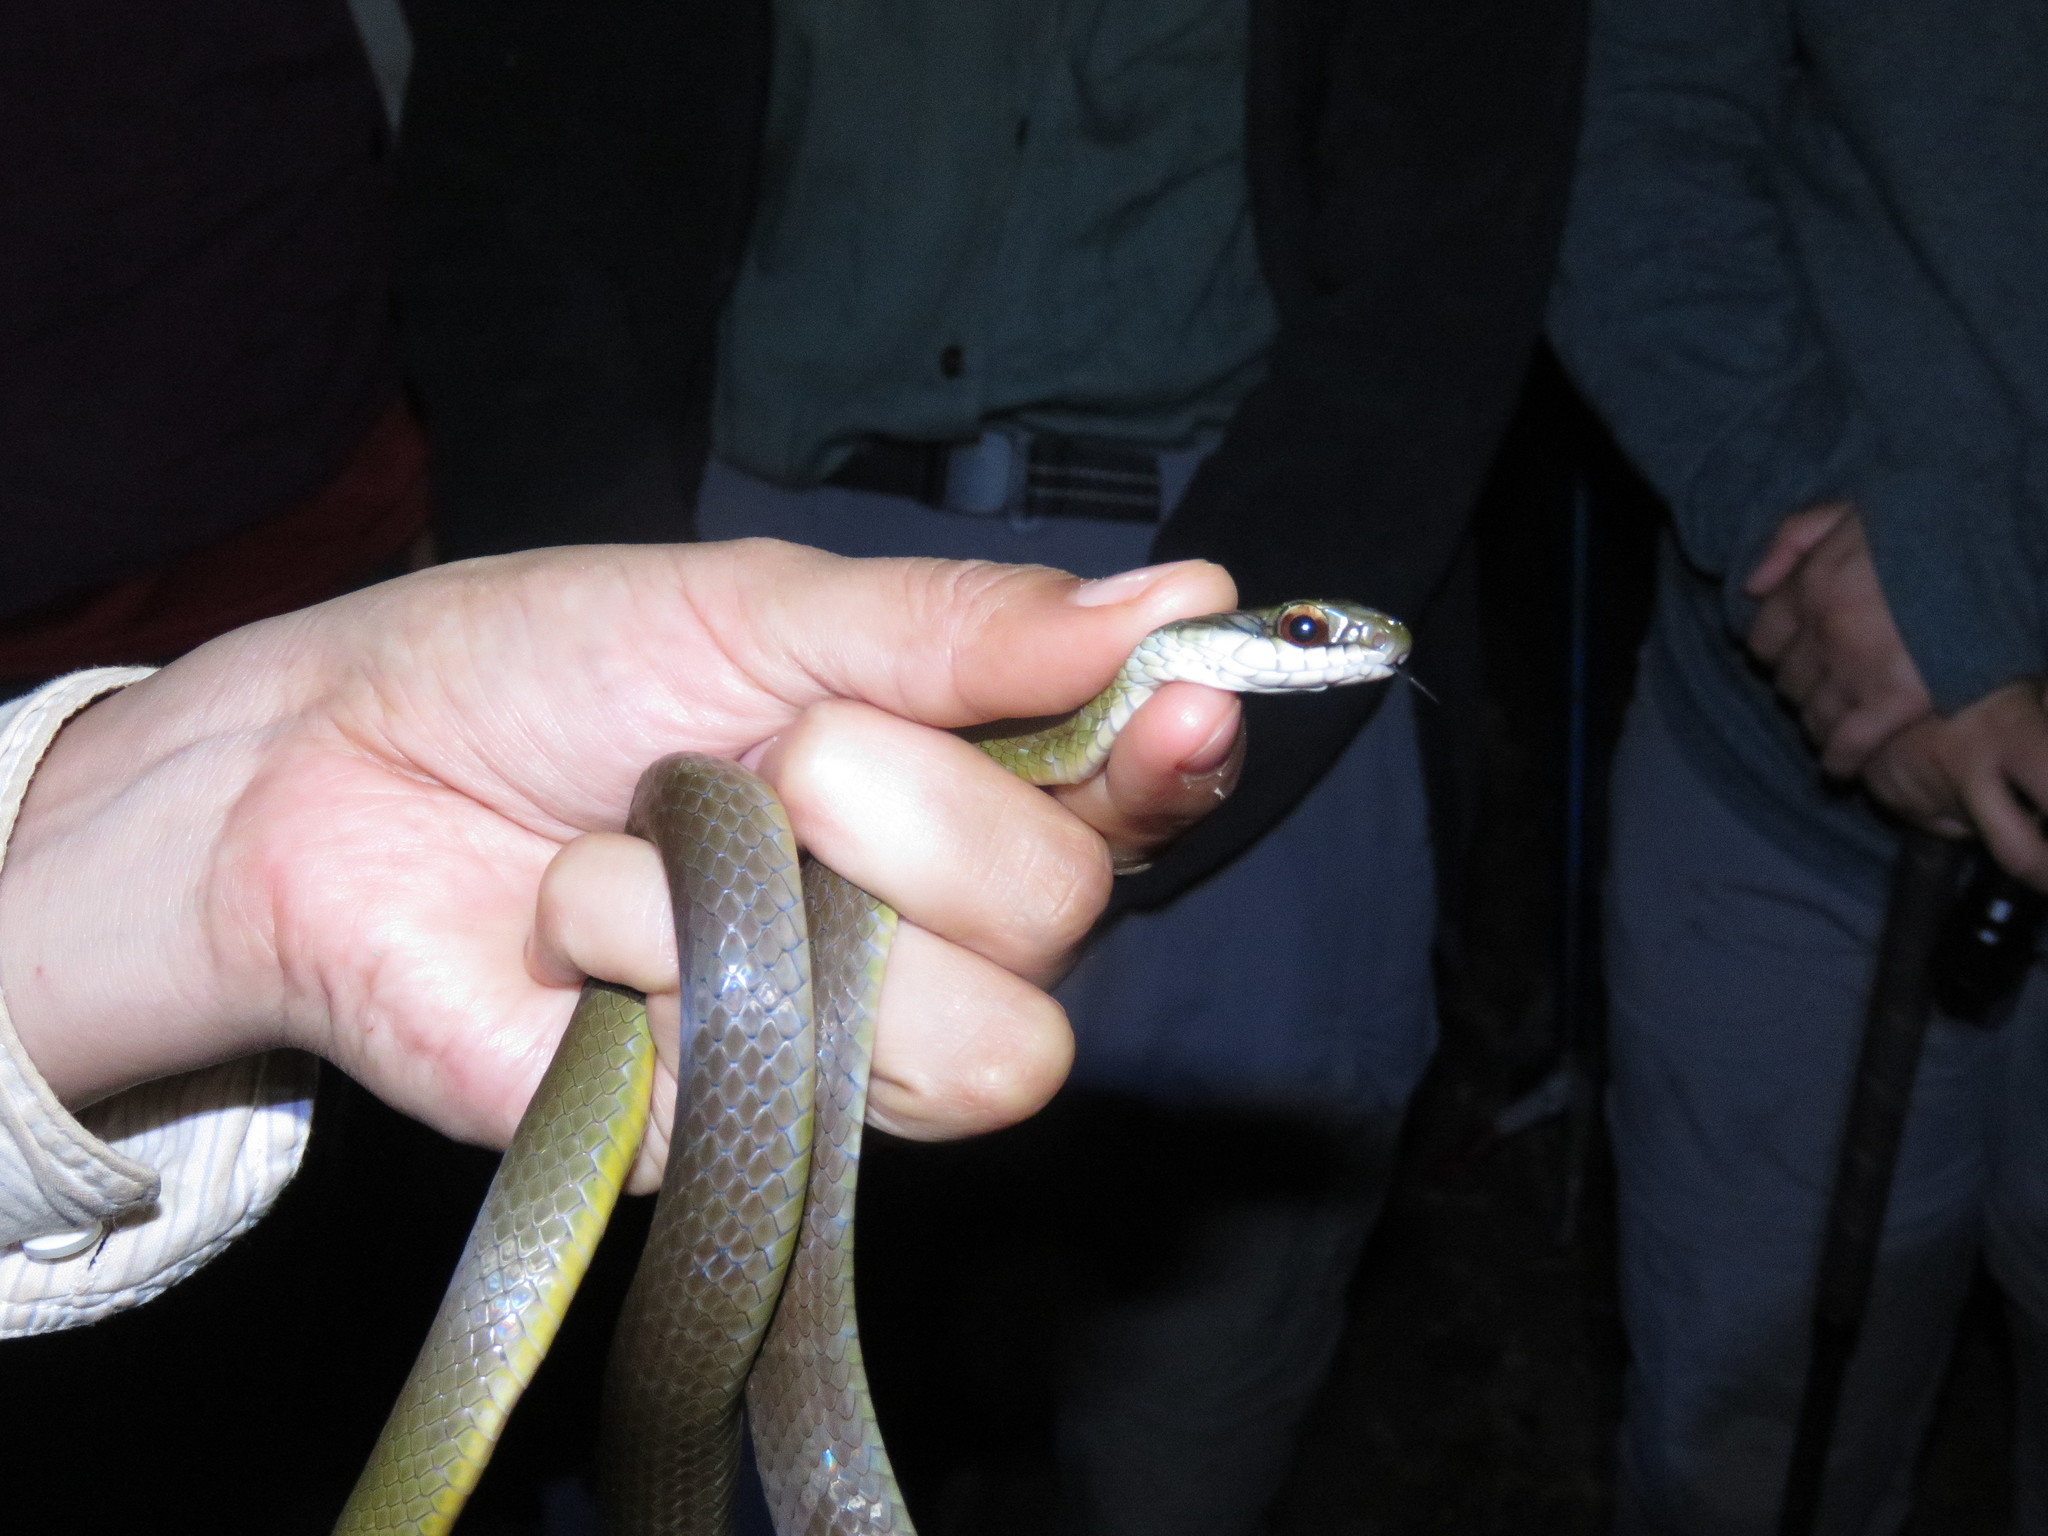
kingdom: Animalia
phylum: Chordata
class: Squamata
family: Colubridae
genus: Drymoluber
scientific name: Drymoluber dichrous
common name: Northern woodland racer
